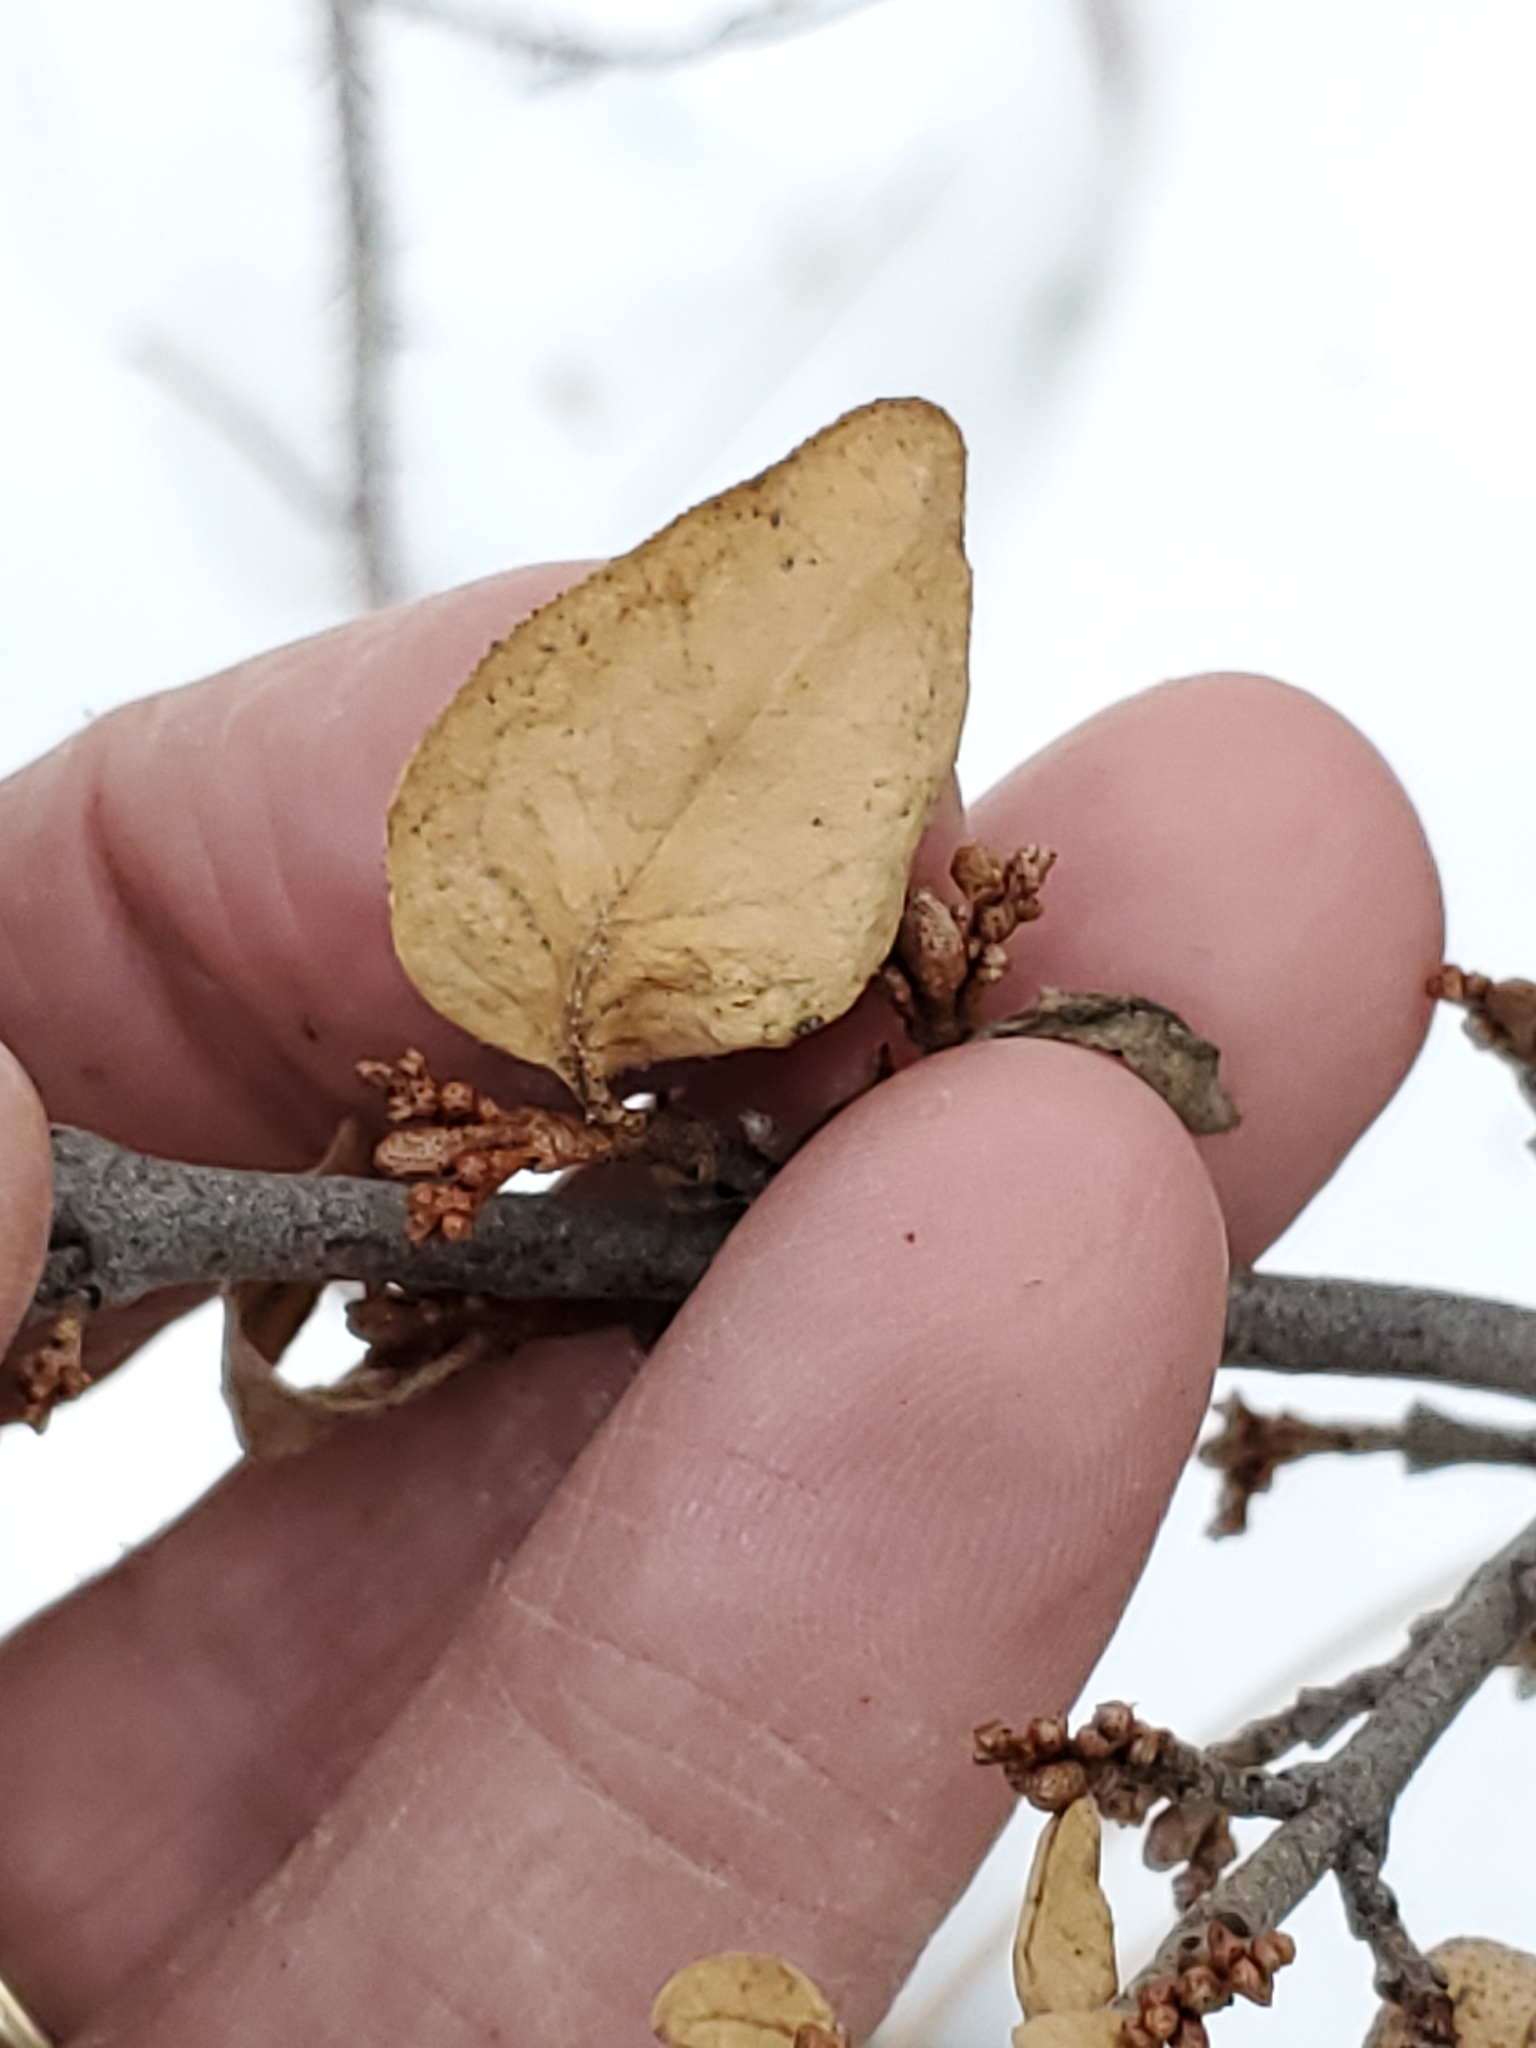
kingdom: Plantae
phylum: Tracheophyta
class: Magnoliopsida
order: Rosales
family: Elaeagnaceae
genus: Shepherdia
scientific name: Shepherdia canadensis
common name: Soapberry
